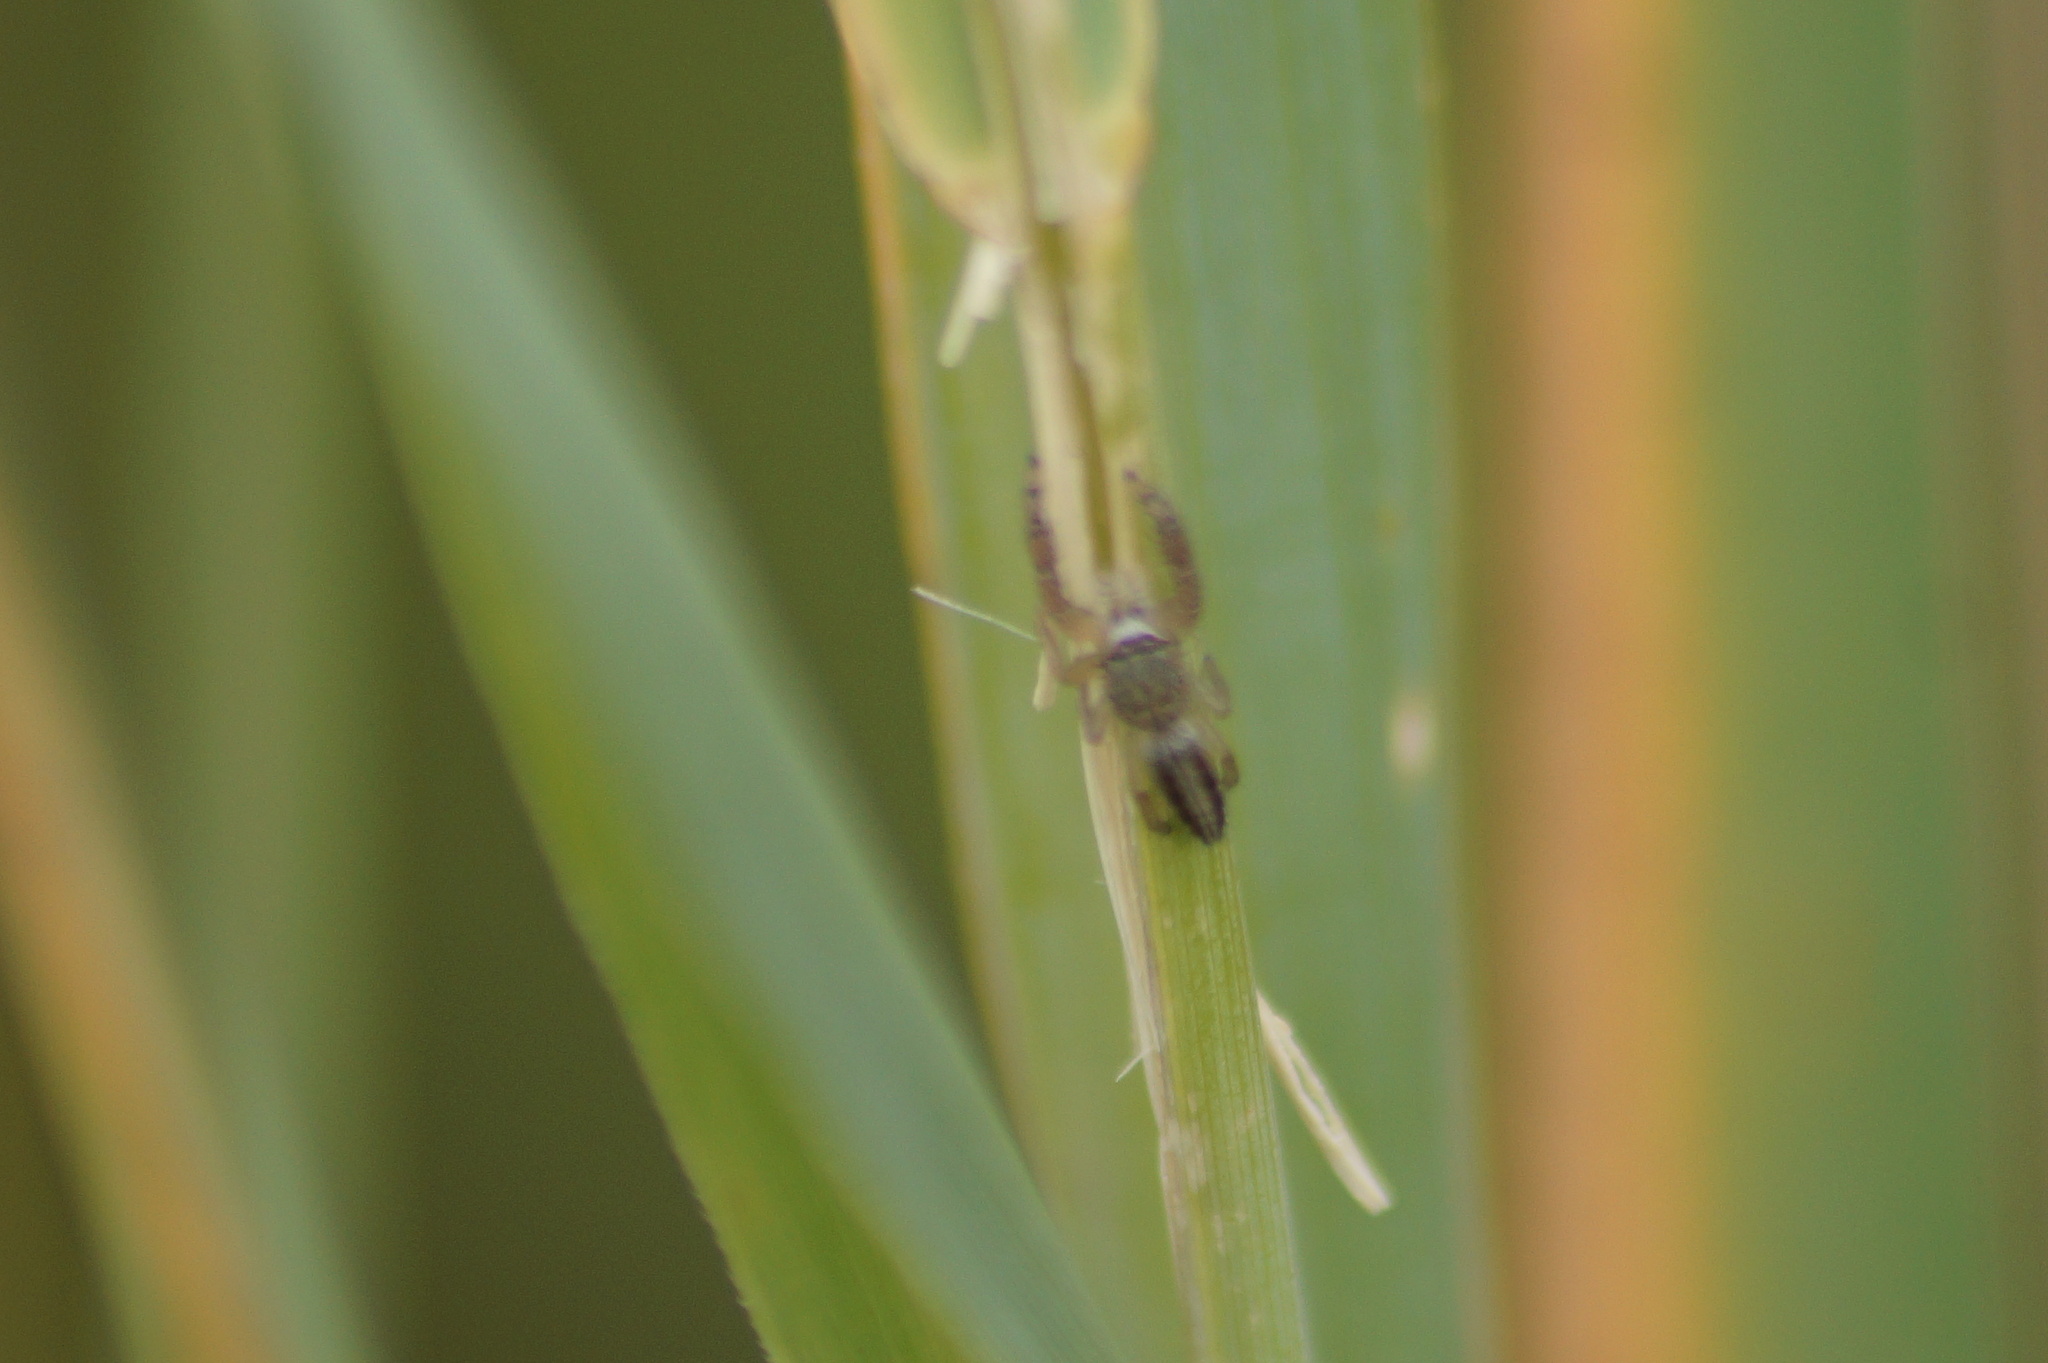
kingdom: Animalia
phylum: Arthropoda
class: Arachnida
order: Araneae
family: Salticidae
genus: Mendoza
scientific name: Mendoza canestrinii
